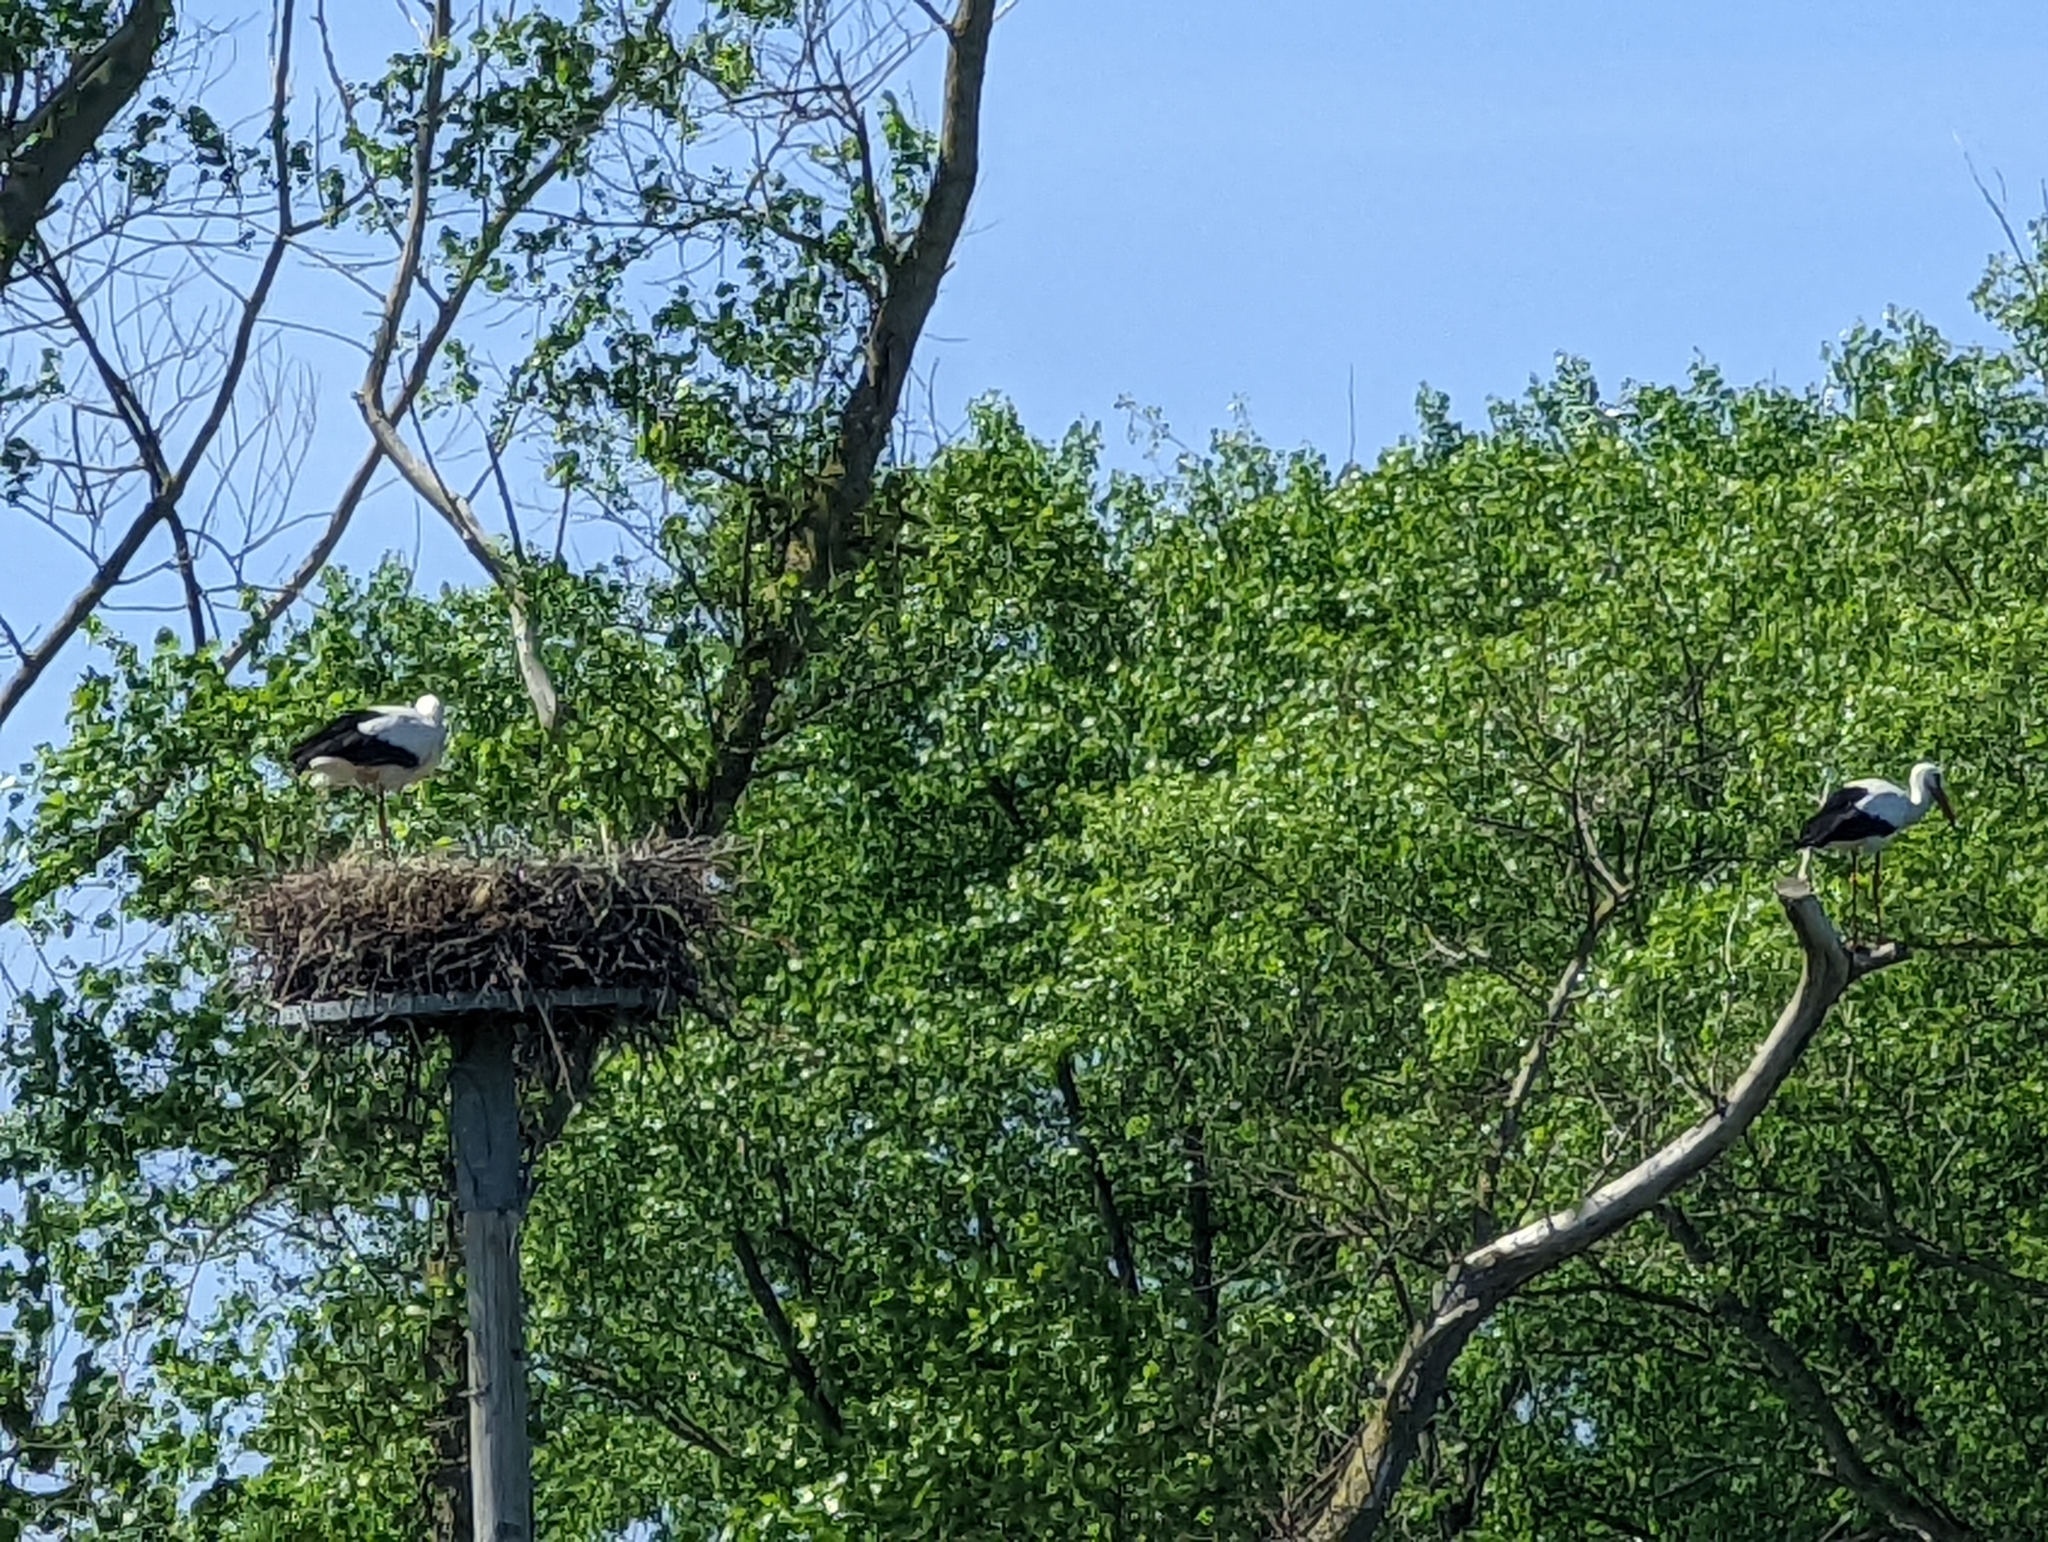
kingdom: Animalia
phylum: Chordata
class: Aves
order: Ciconiiformes
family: Ciconiidae
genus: Ciconia
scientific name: Ciconia ciconia
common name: White stork
